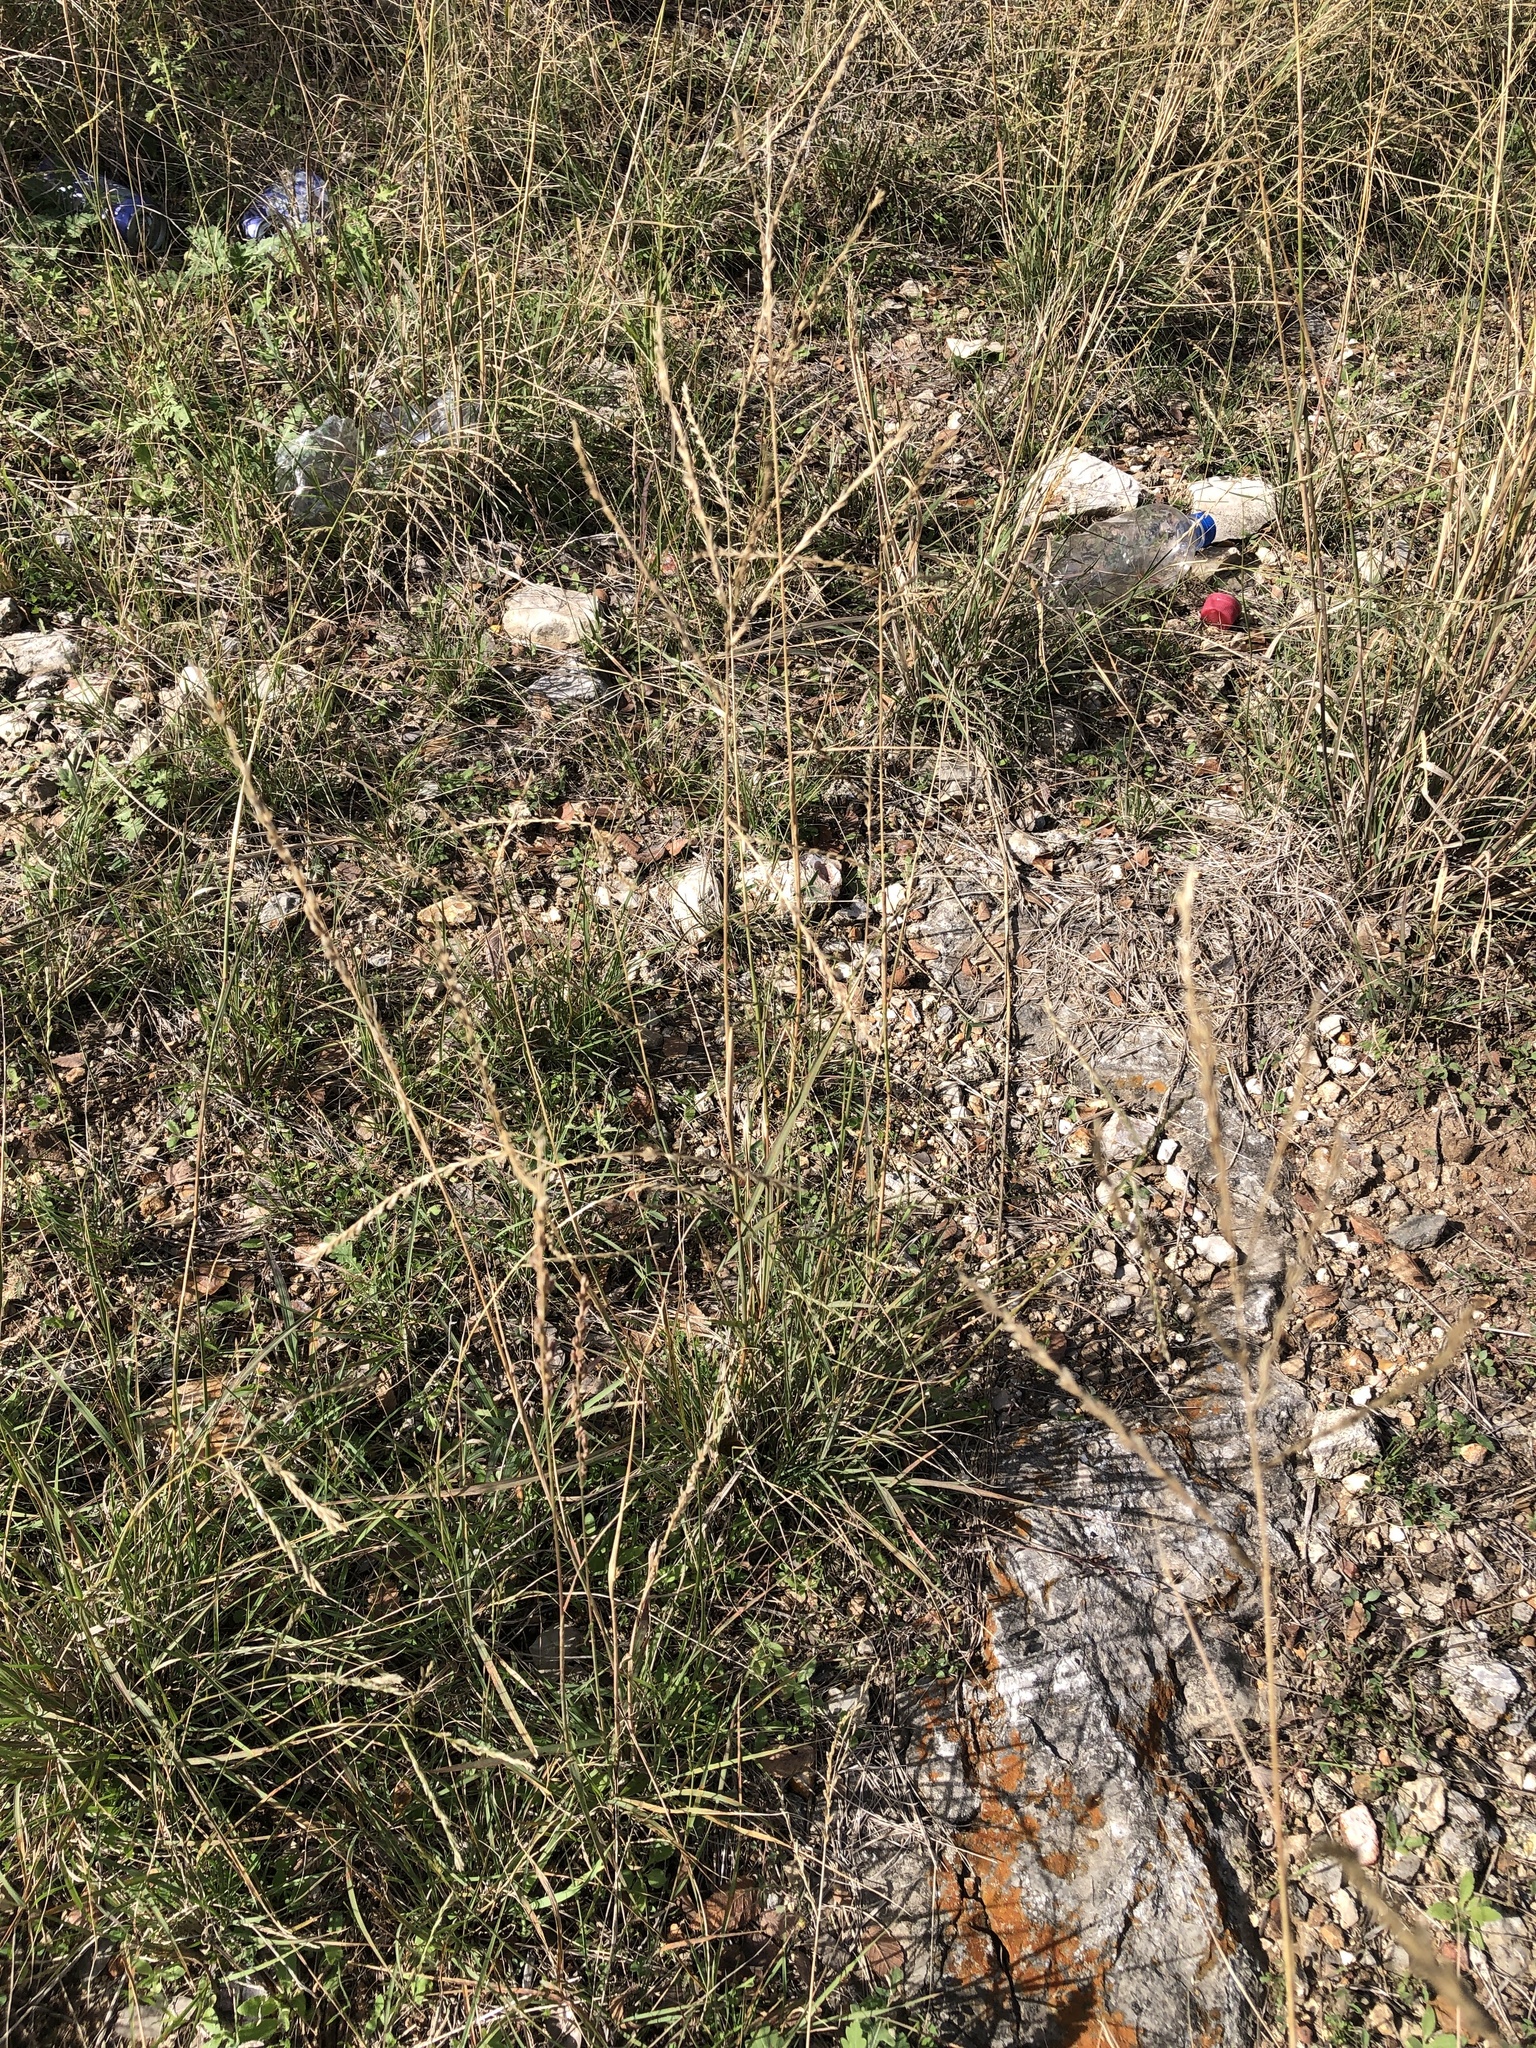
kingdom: Plantae
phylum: Tracheophyta
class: Liliopsida
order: Poales
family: Poaceae
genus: Disakisperma
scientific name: Disakisperma dubium
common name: Green sprangletop
